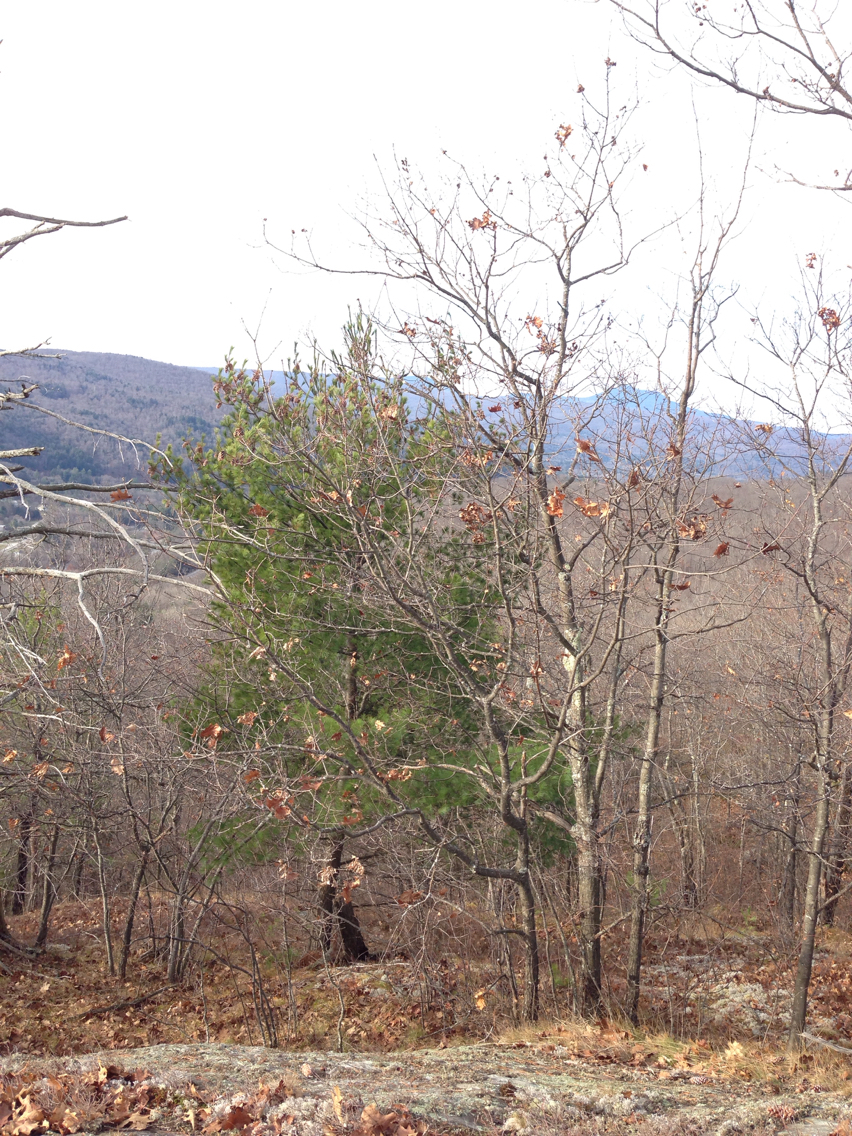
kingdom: Plantae
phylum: Tracheophyta
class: Pinopsida
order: Pinales
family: Pinaceae
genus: Pinus
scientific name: Pinus strobus
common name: Weymouth pine
